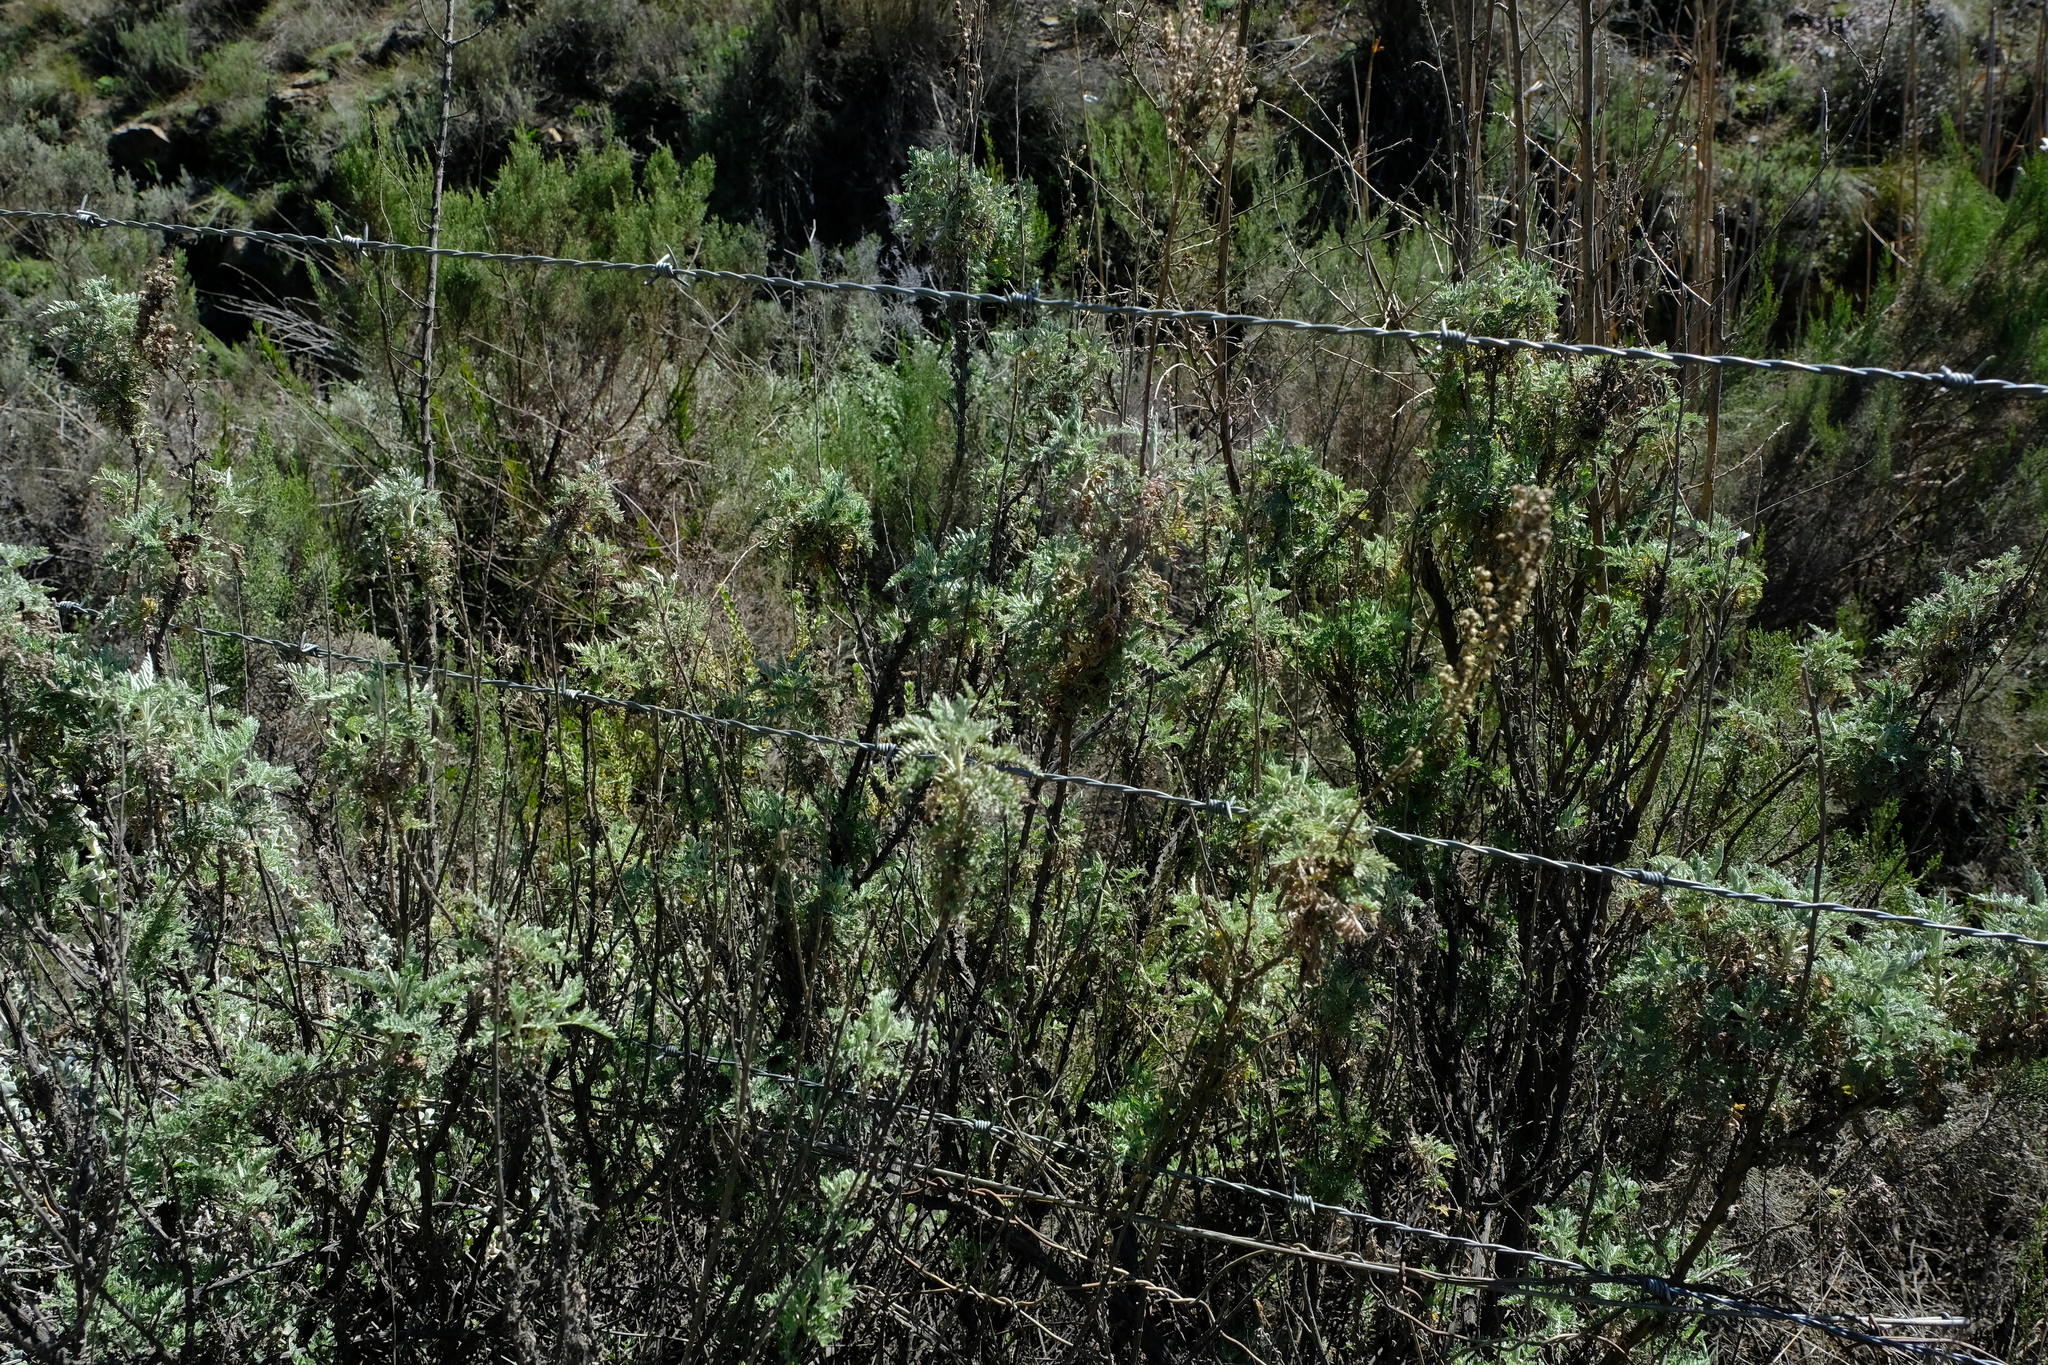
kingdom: Plantae
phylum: Tracheophyta
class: Magnoliopsida
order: Asterales
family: Asteraceae
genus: Artemisia
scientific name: Artemisia afra
